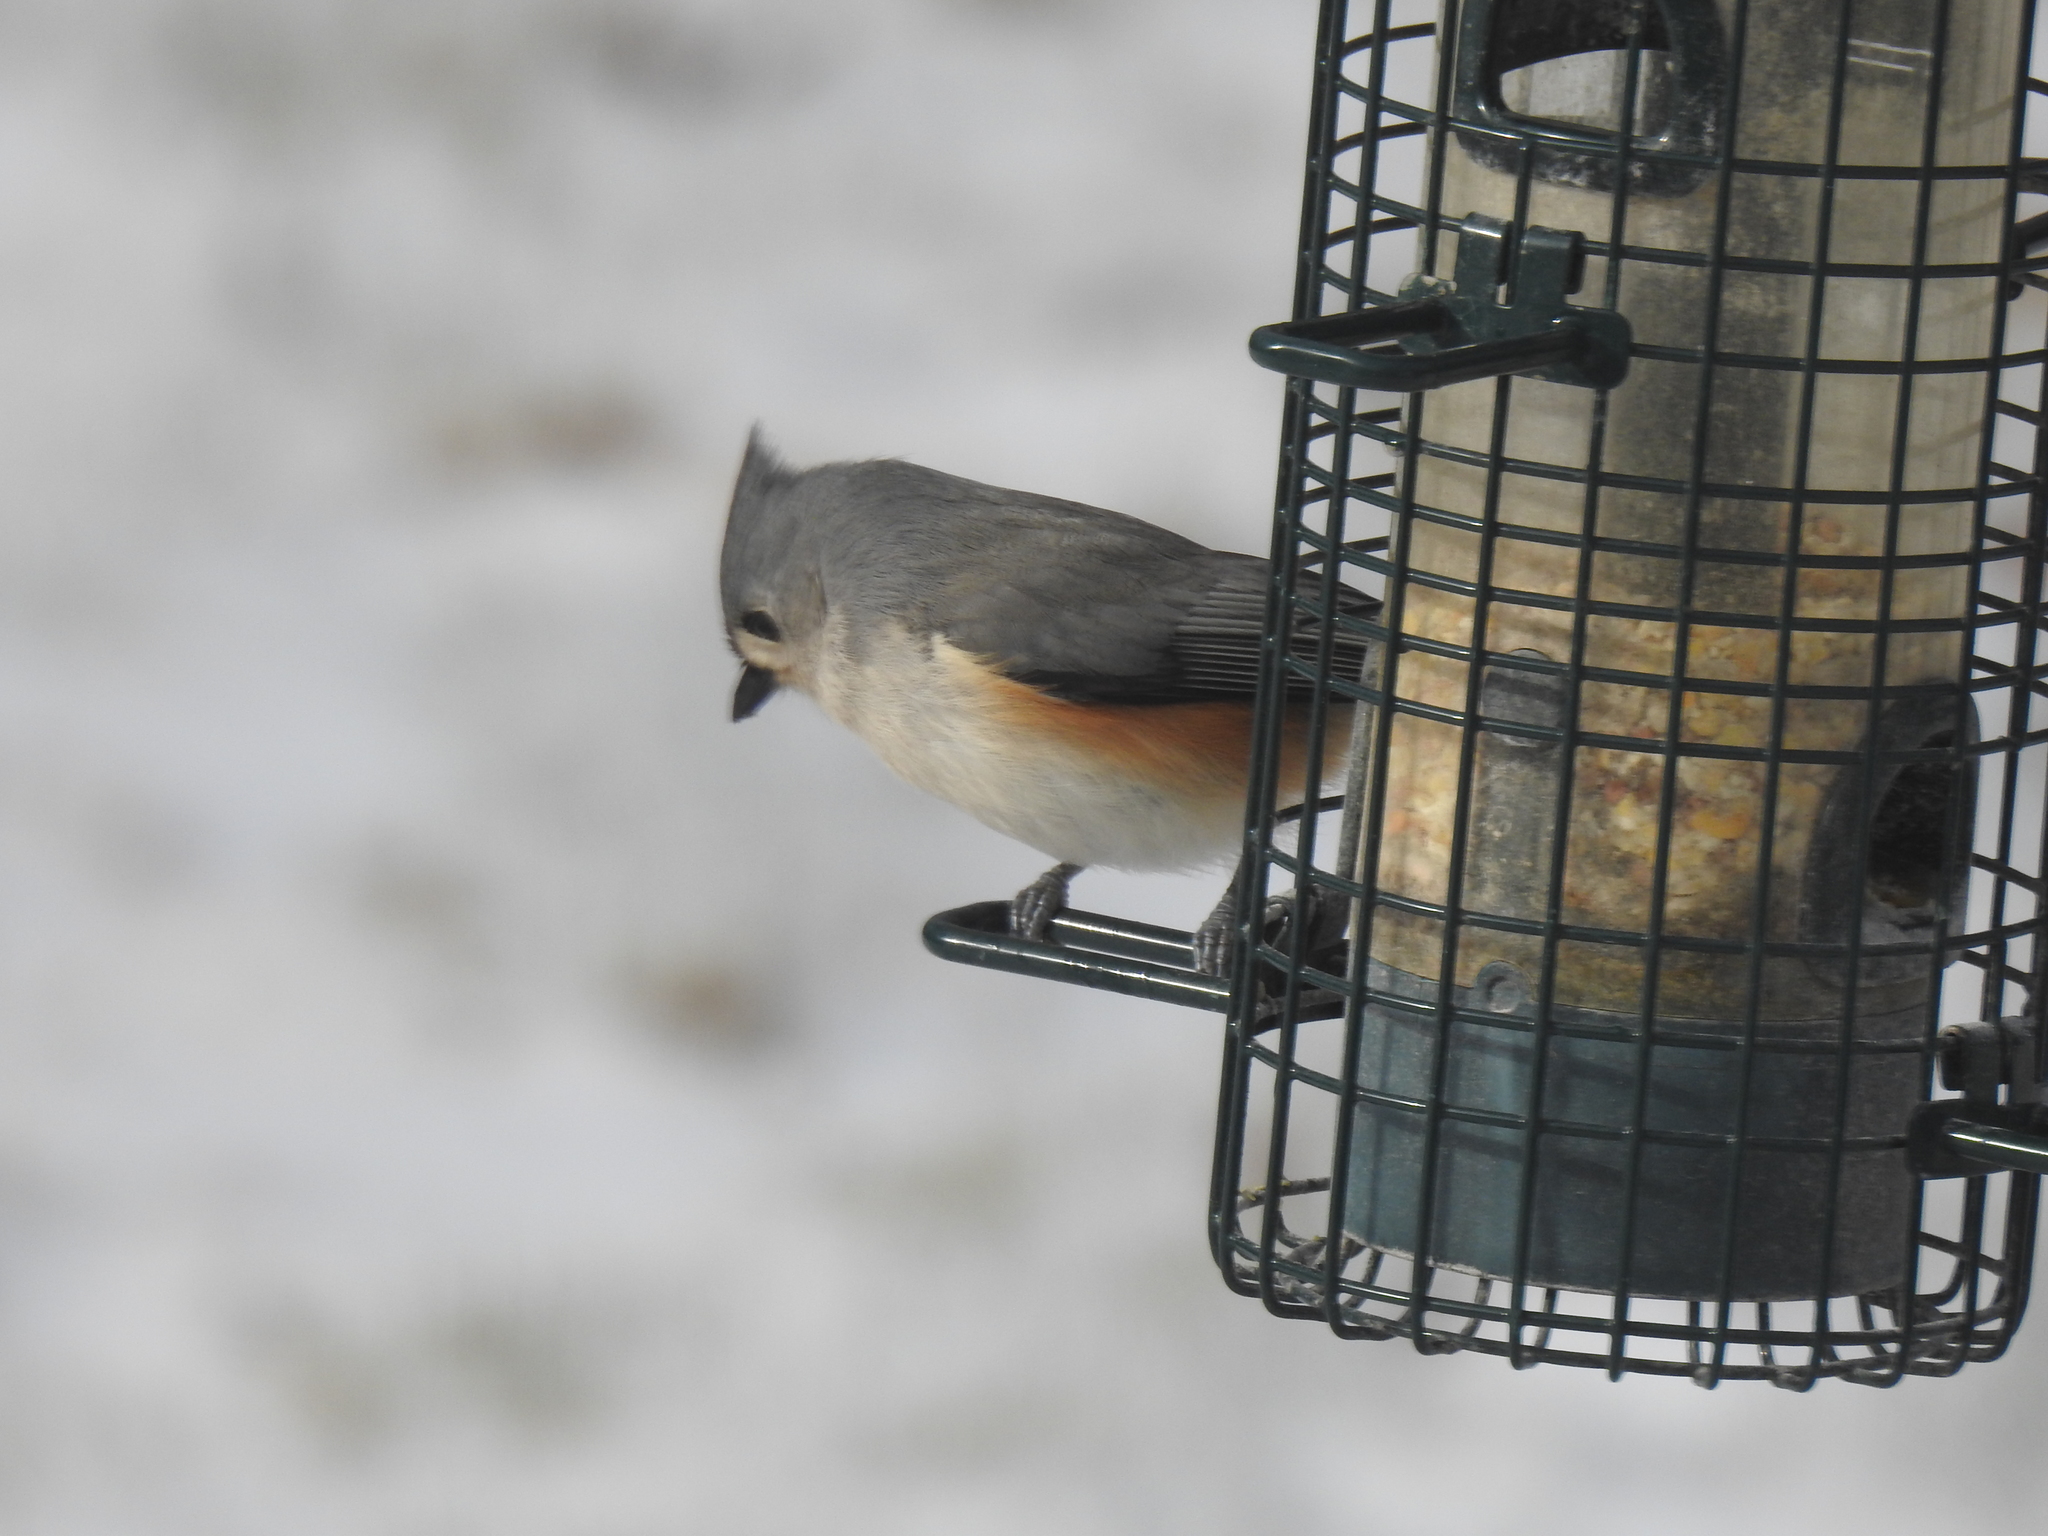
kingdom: Animalia
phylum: Chordata
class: Aves
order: Passeriformes
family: Paridae
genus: Baeolophus
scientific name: Baeolophus bicolor
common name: Tufted titmouse
